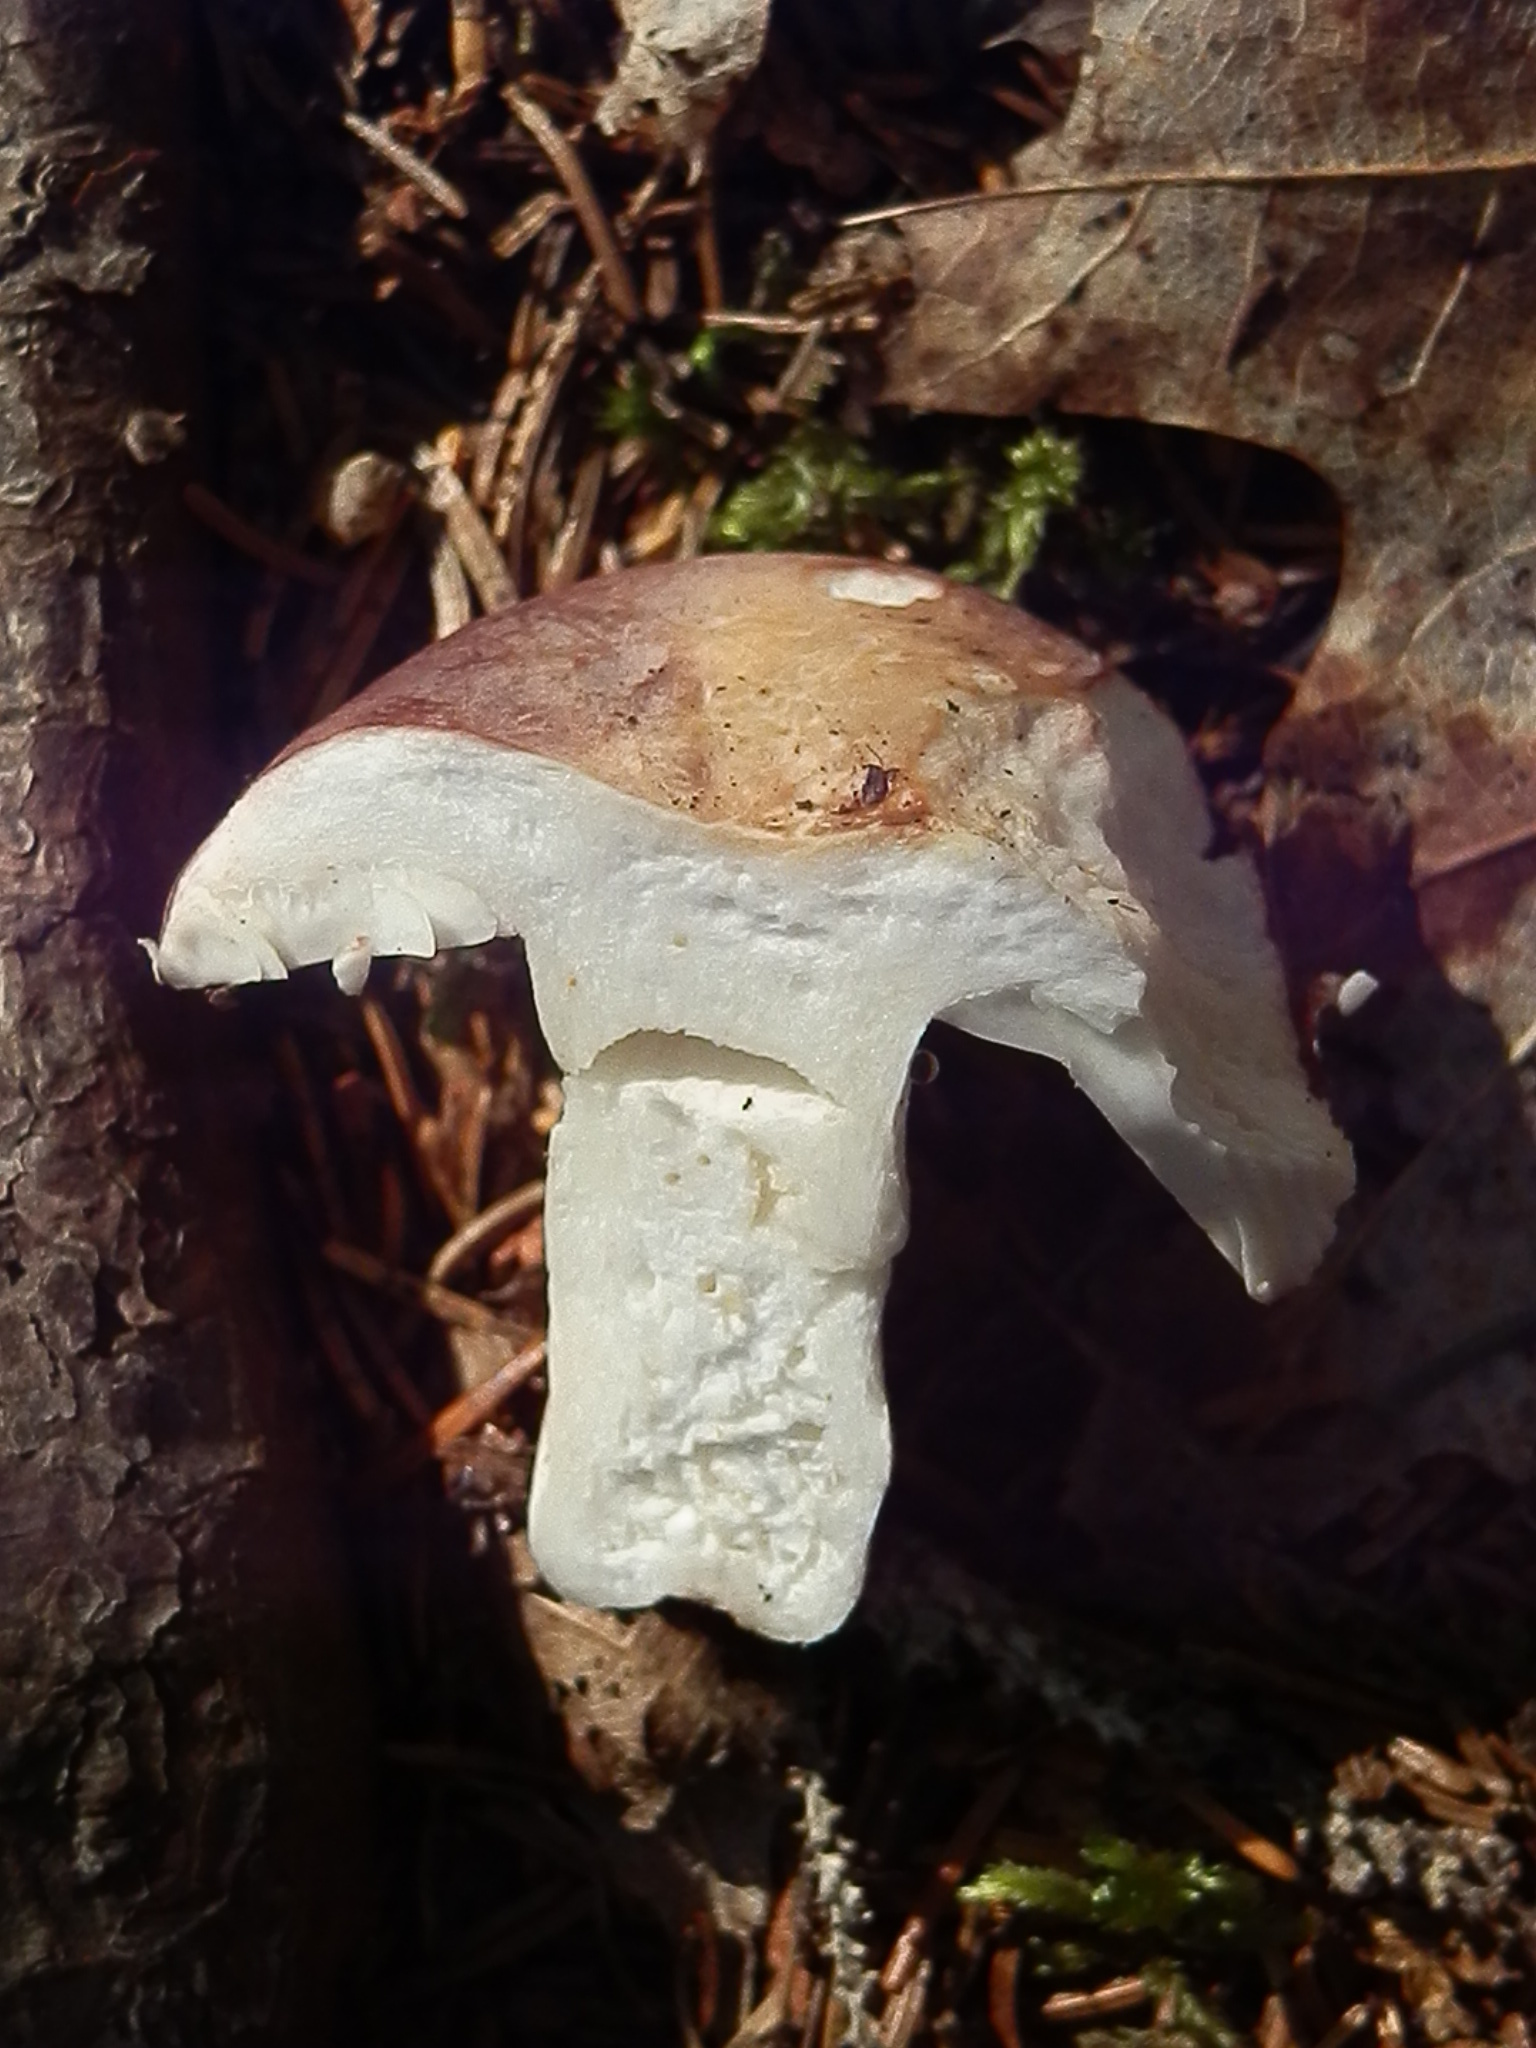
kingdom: Fungi
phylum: Basidiomycota
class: Agaricomycetes
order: Russulales
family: Russulaceae
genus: Russula
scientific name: Russula mariae
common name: Purple-bloom russula
